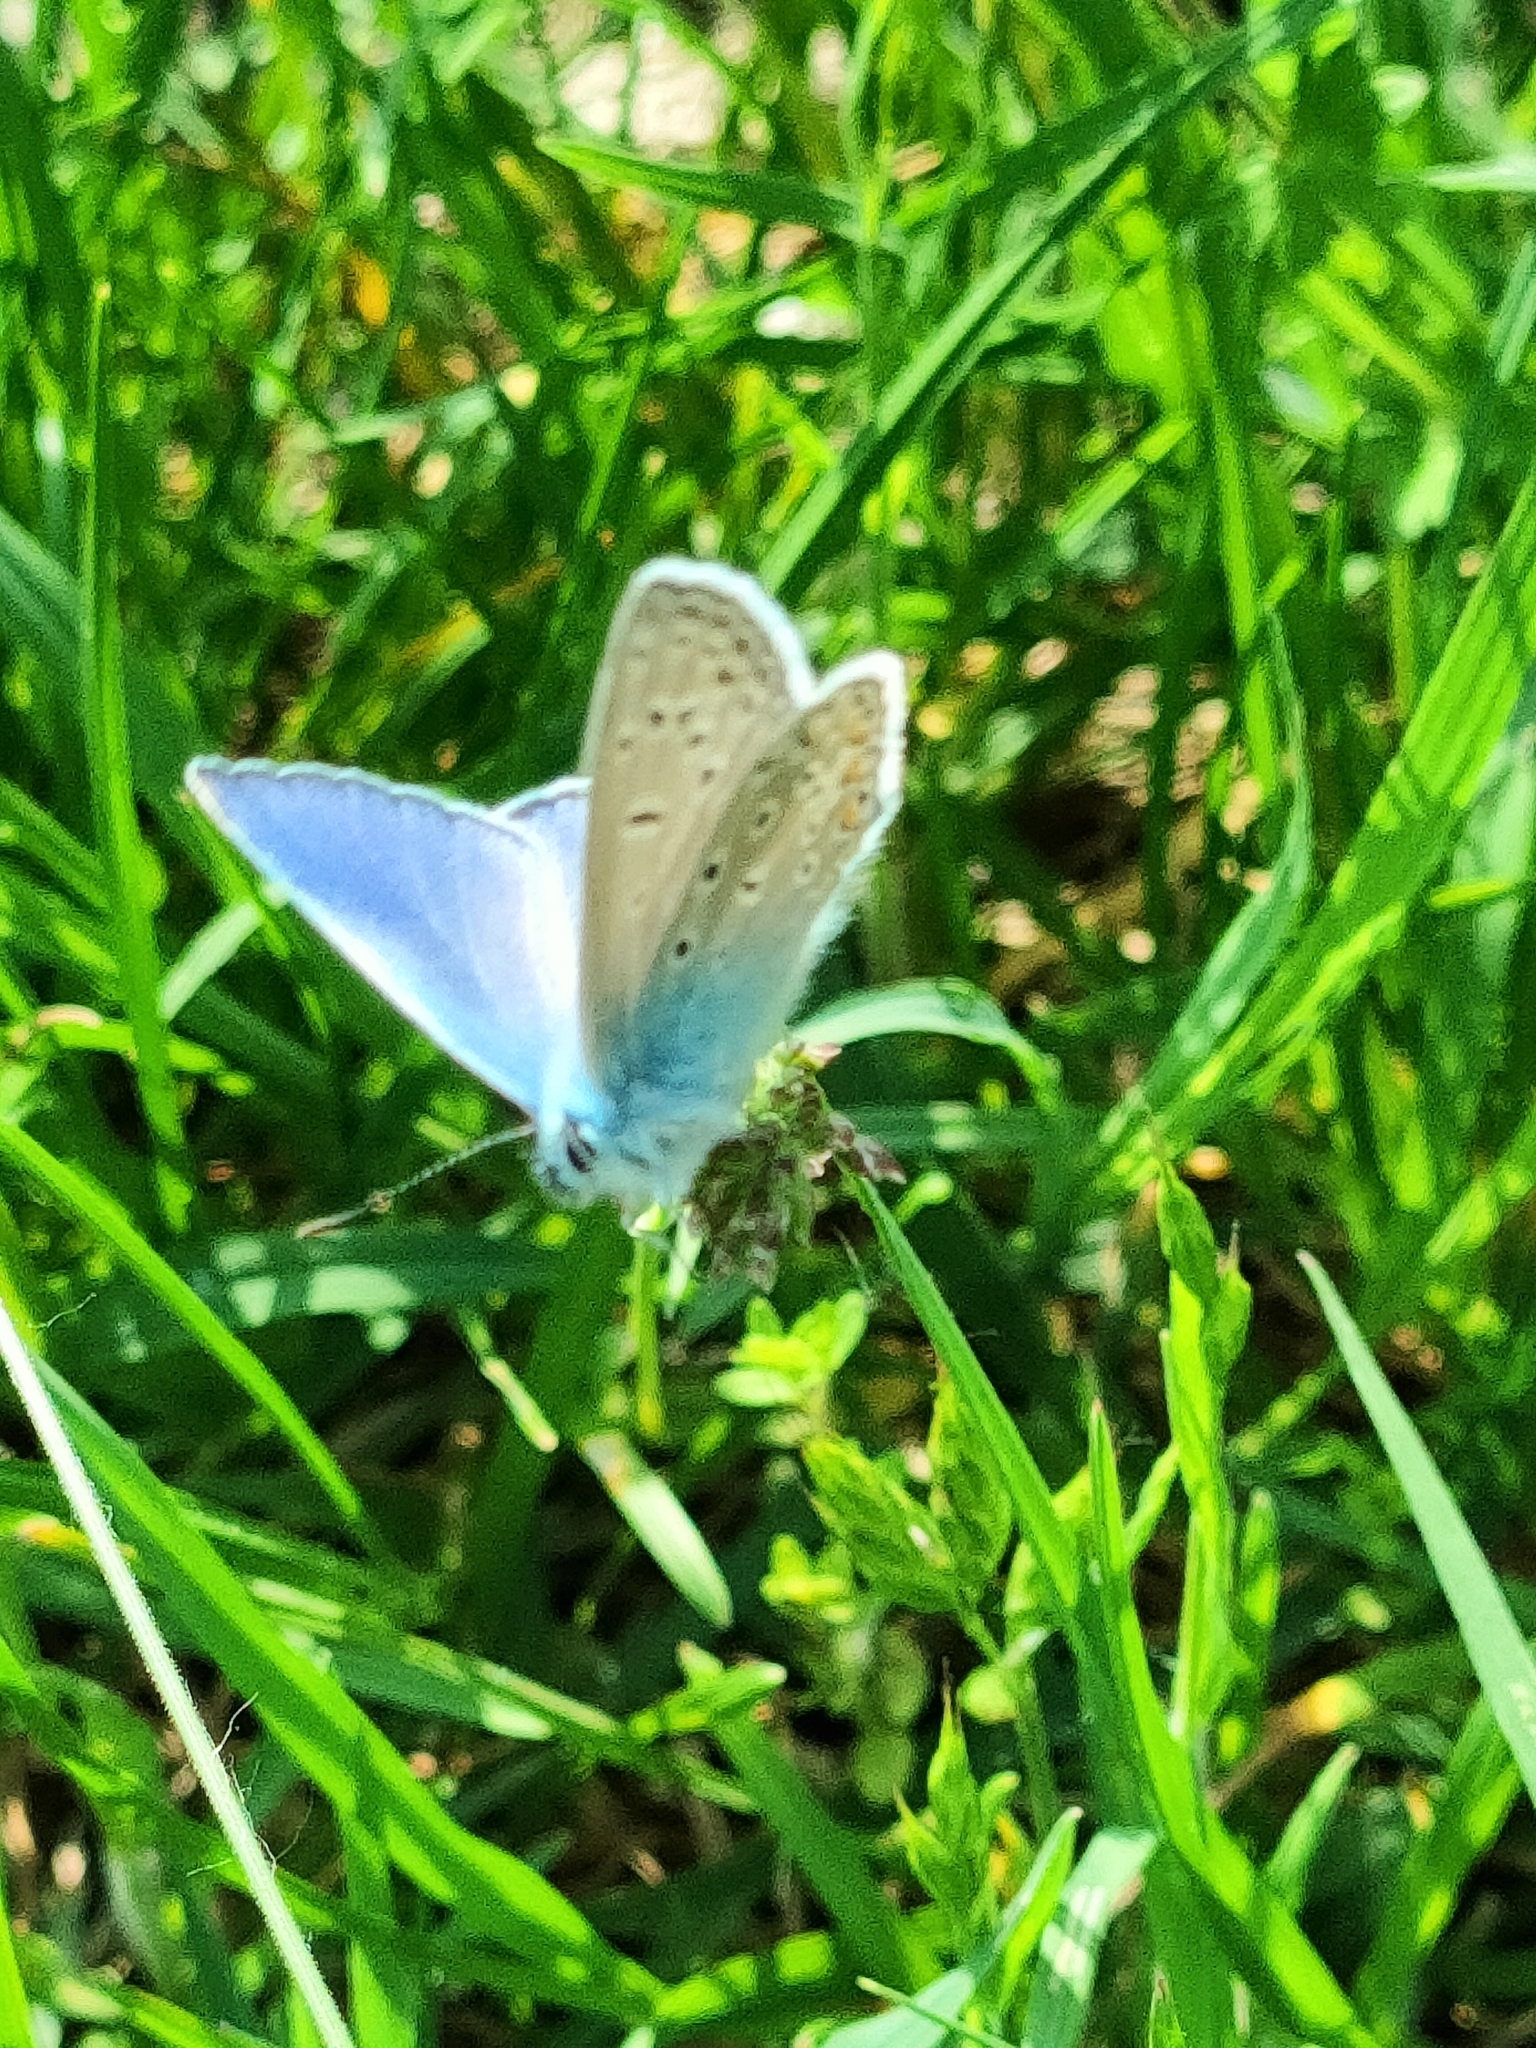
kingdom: Animalia
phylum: Arthropoda
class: Insecta
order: Lepidoptera
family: Lycaenidae
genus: Polyommatus
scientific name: Polyommatus icarus
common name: Common blue
